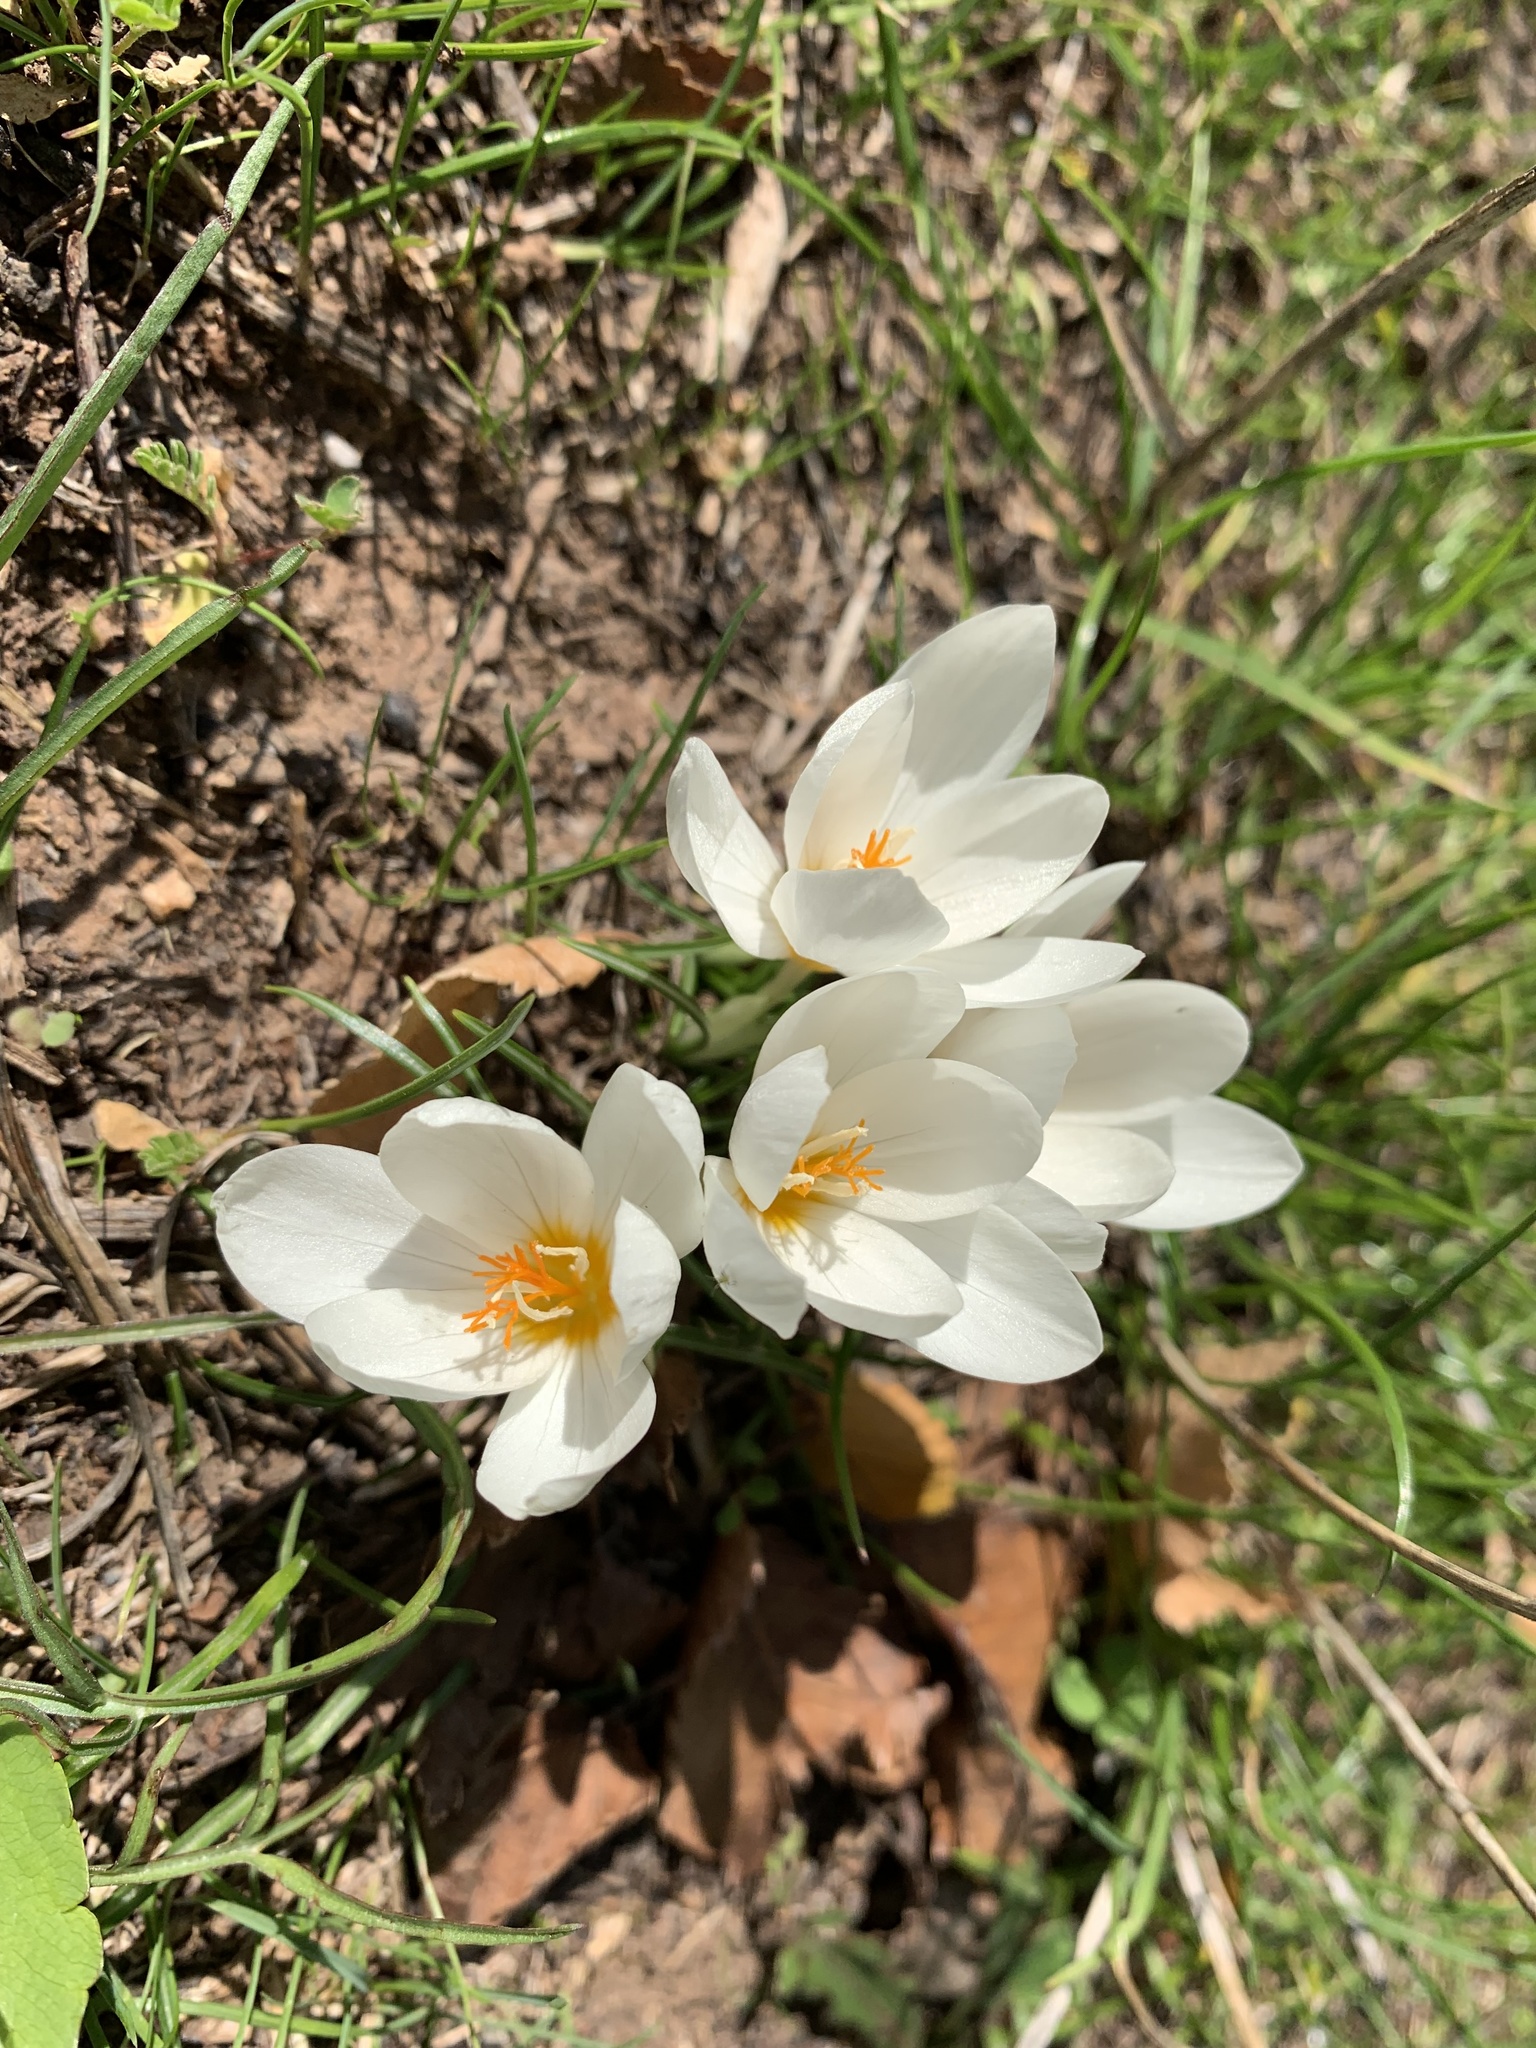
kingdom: Plantae
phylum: Tracheophyta
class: Liliopsida
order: Asparagales
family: Iridaceae
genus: Crocus
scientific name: Crocus boryi
